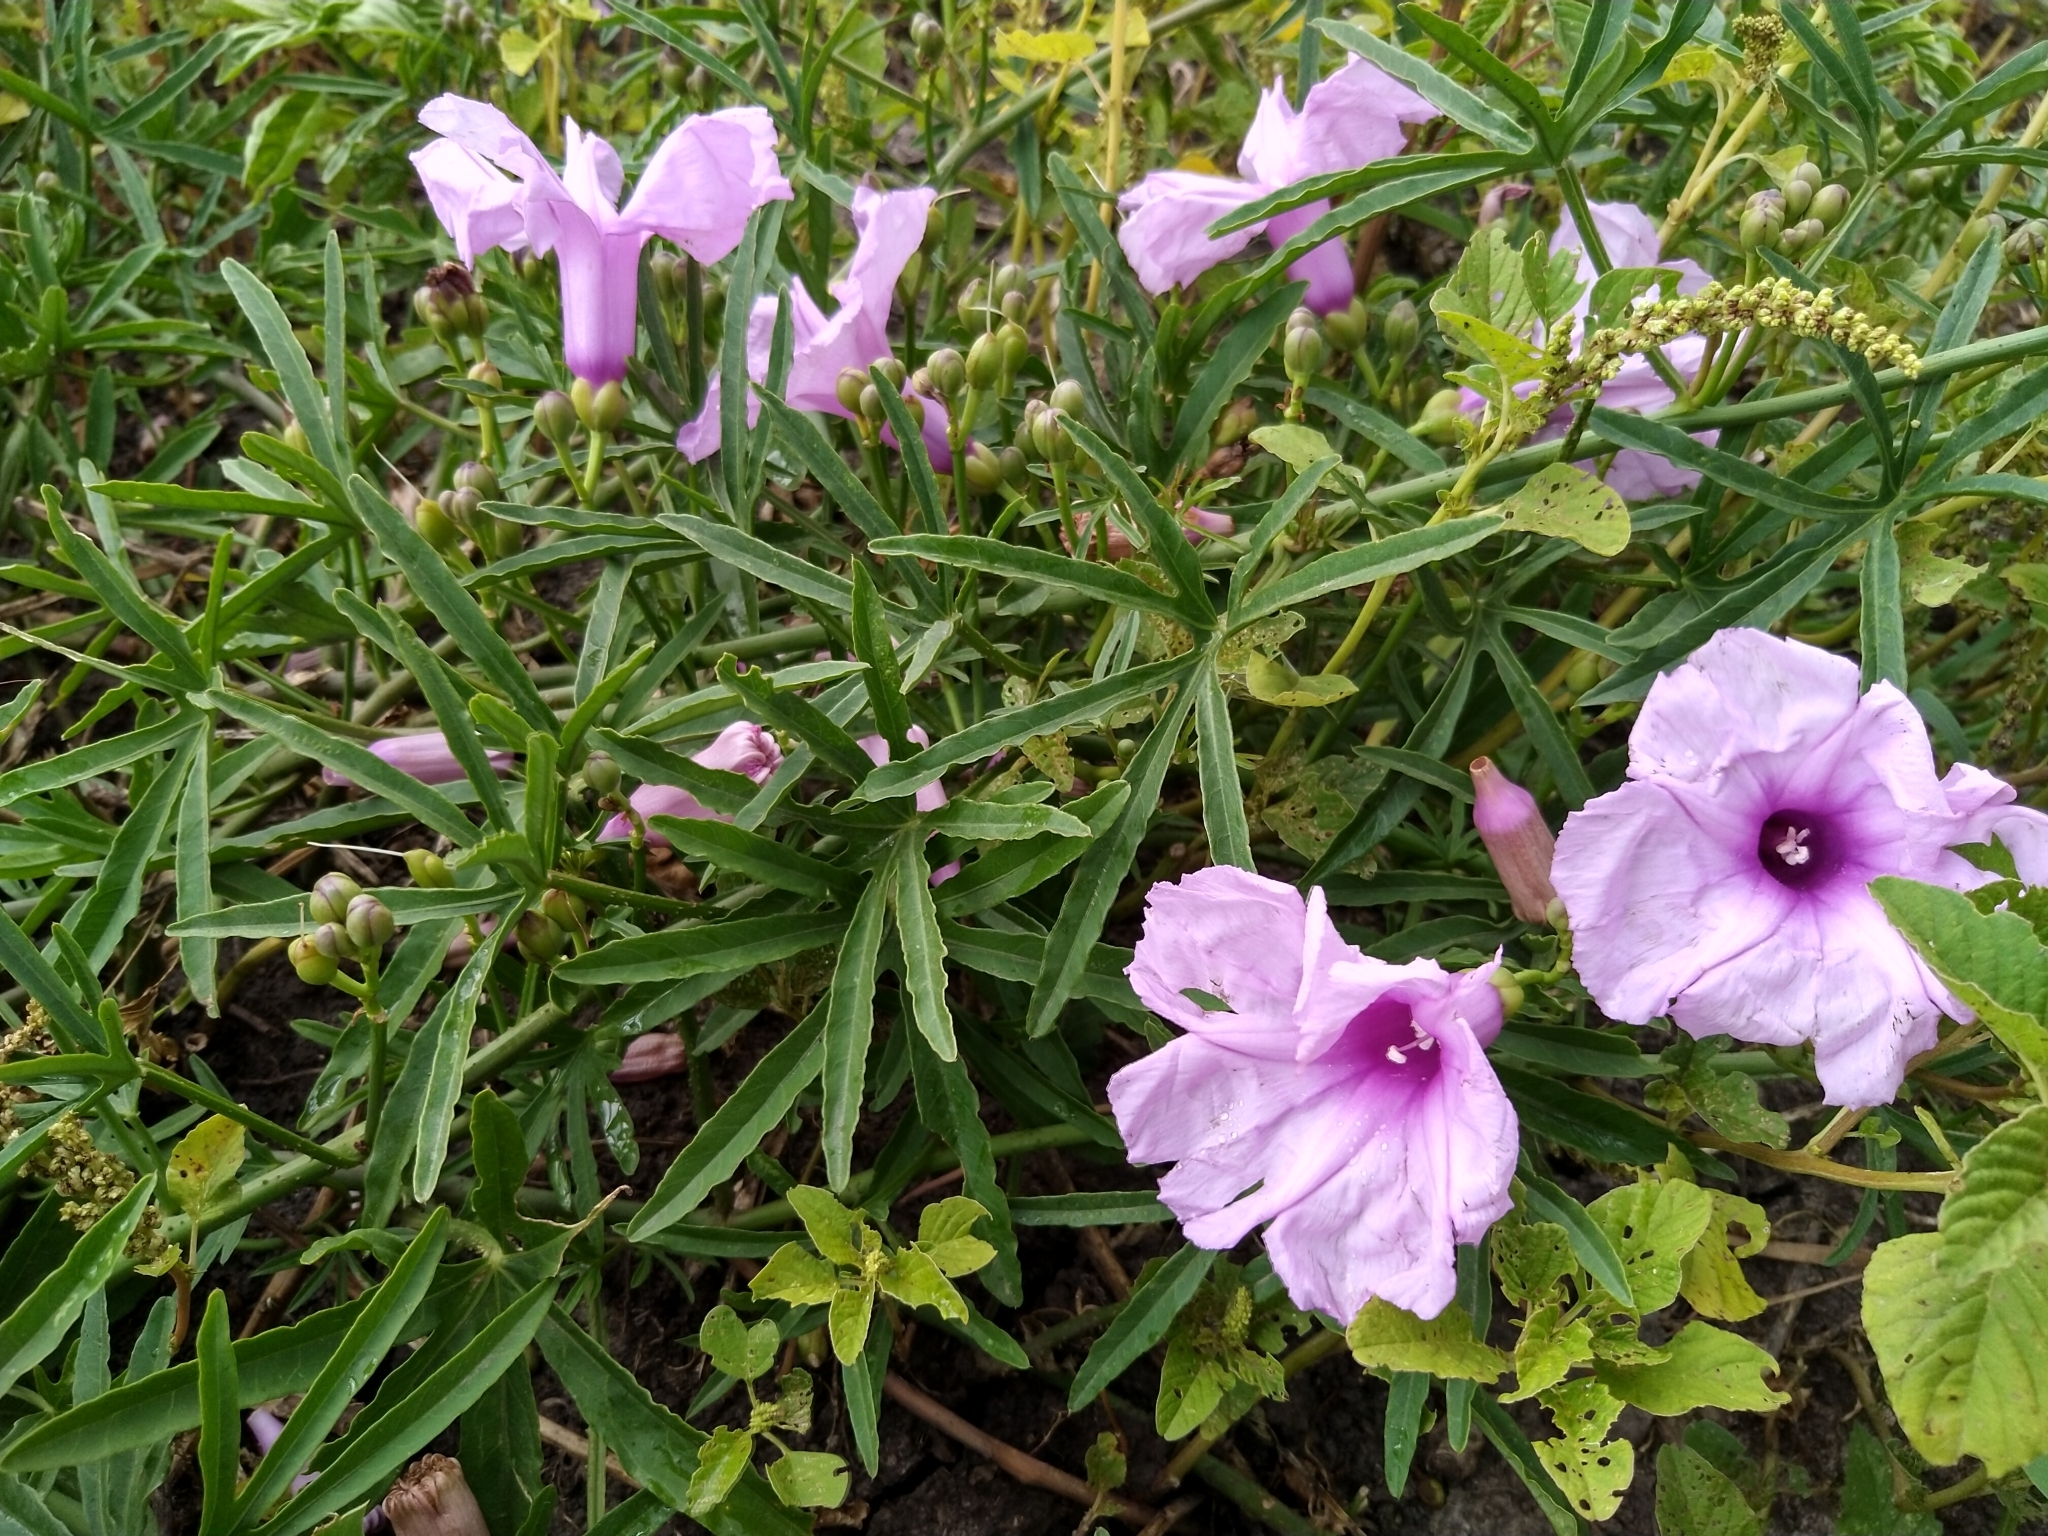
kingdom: Plantae
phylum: Tracheophyta
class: Magnoliopsida
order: Solanales
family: Convolvulaceae
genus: Ipomoea
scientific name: Ipomoea platensis
